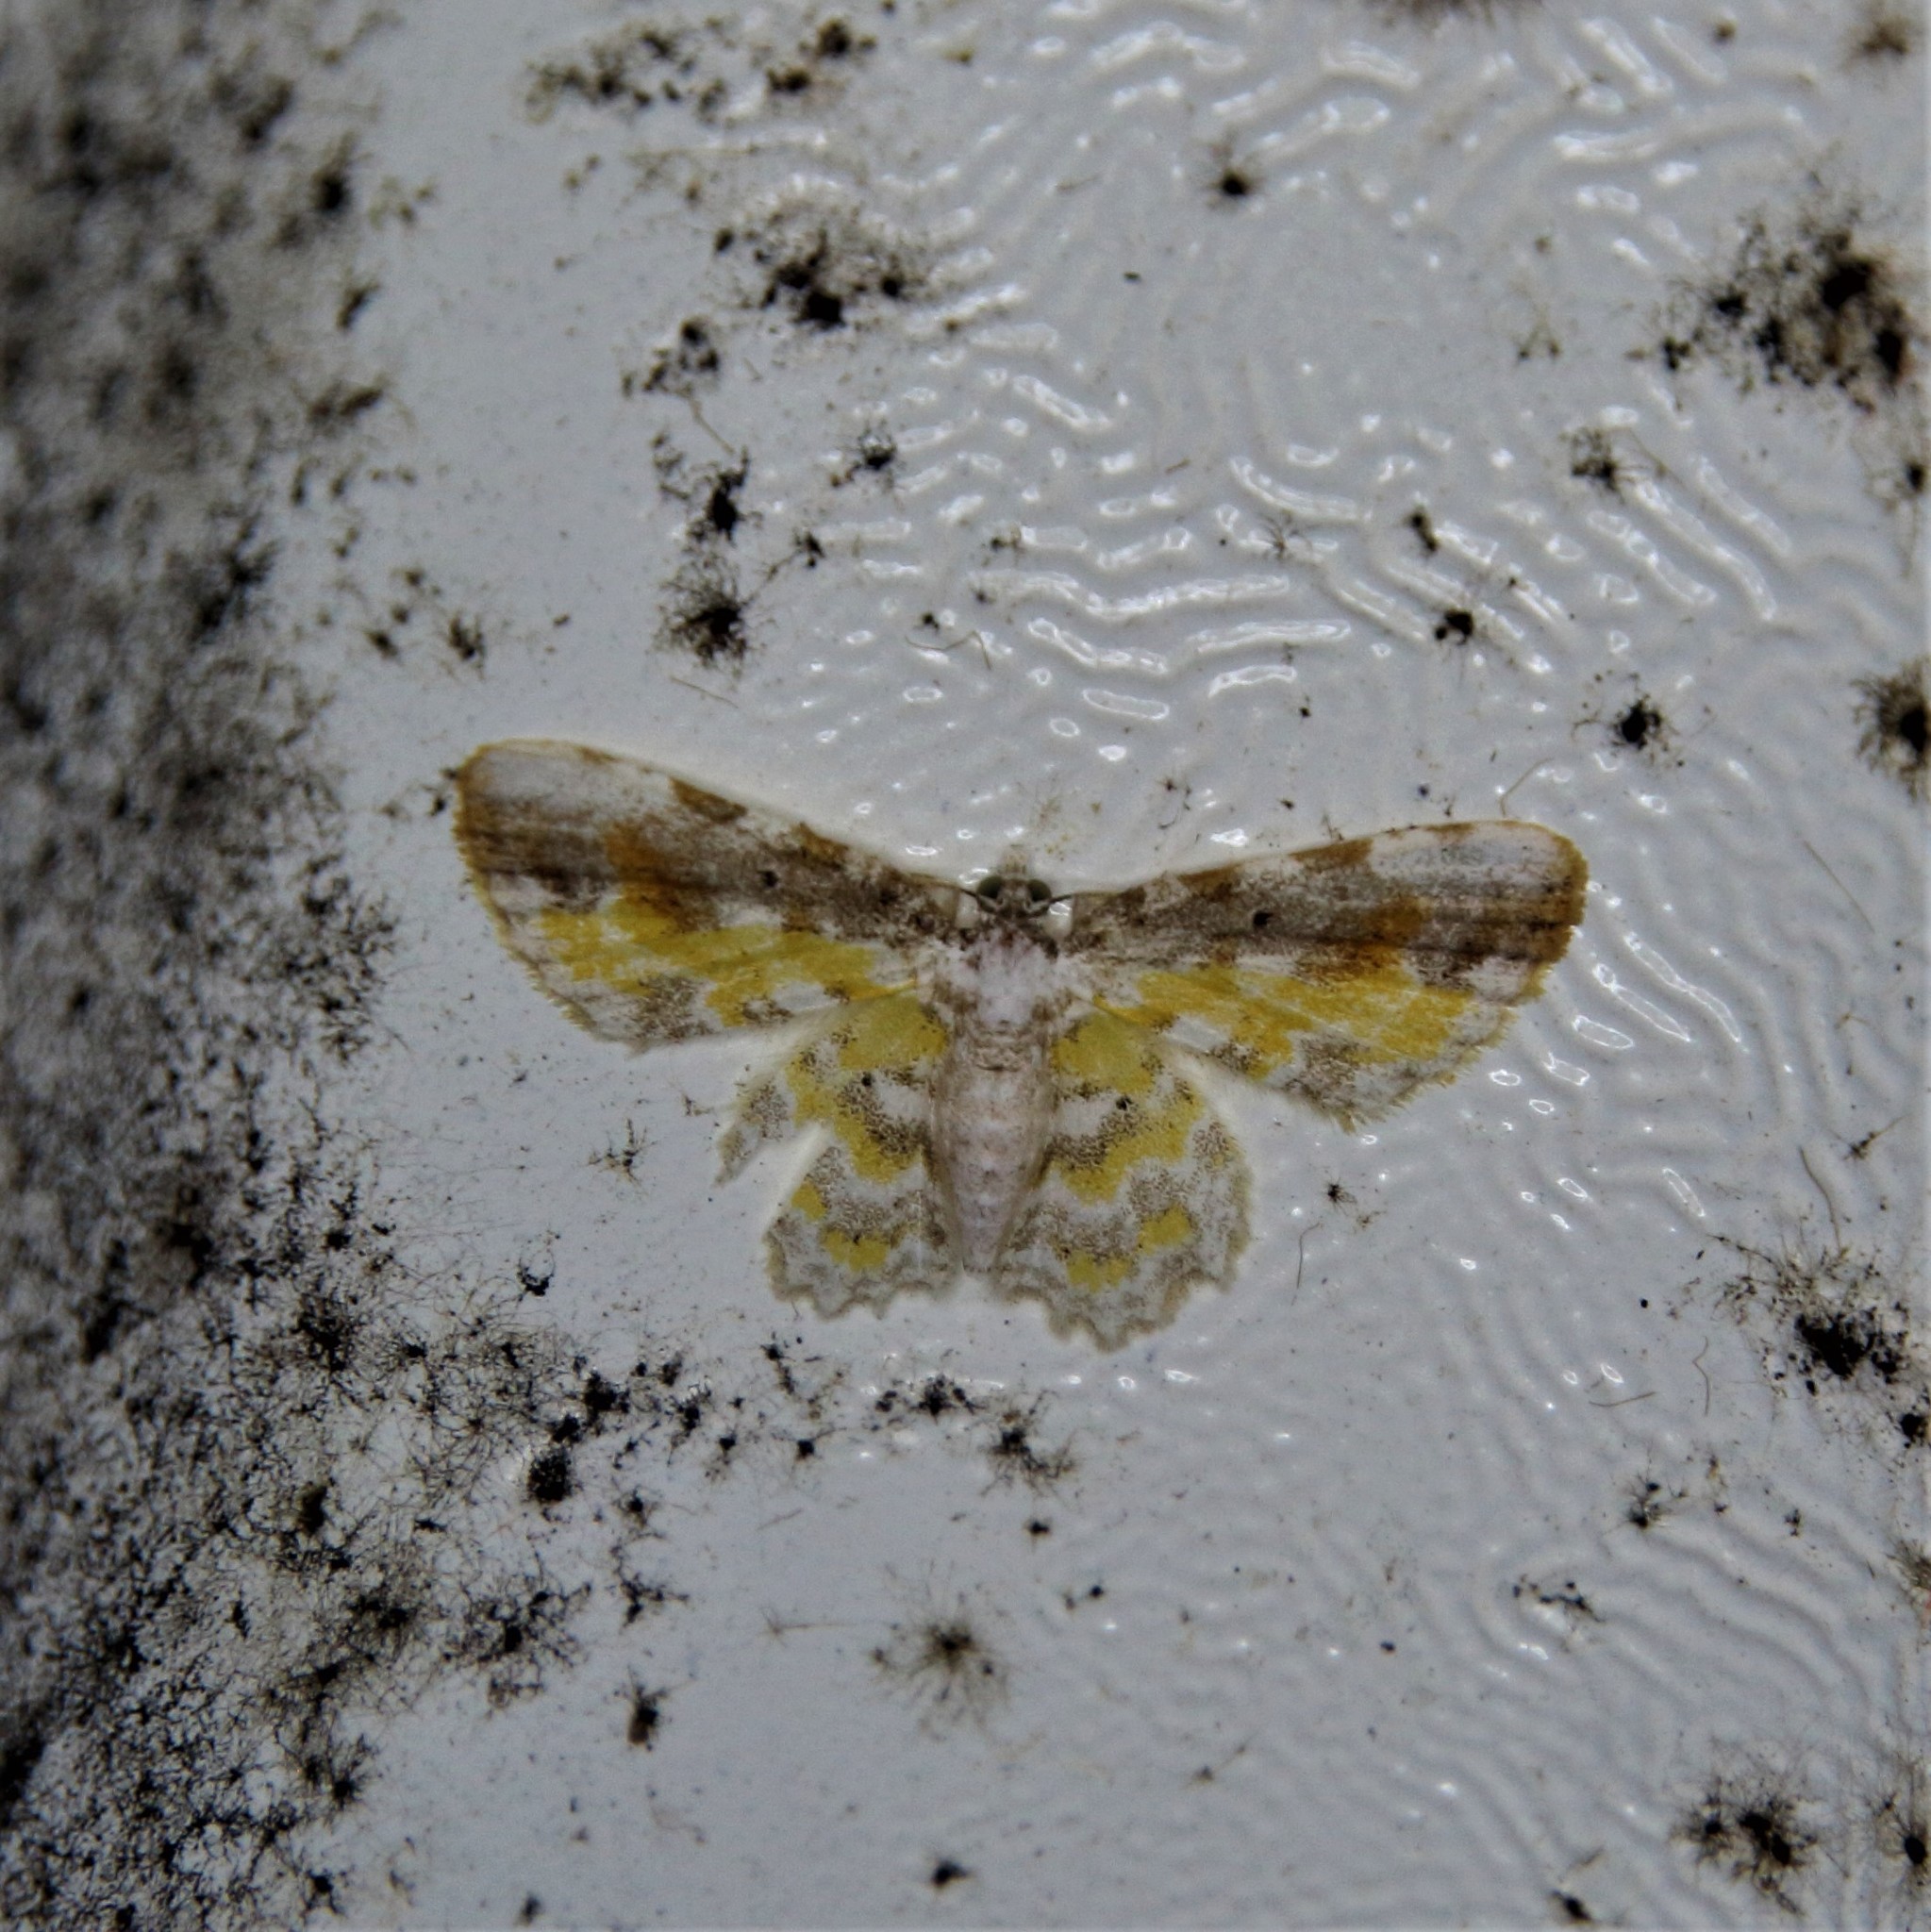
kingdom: Animalia
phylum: Arthropoda
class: Insecta
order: Lepidoptera
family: Geometridae
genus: Acolutha
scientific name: Acolutha pictaria
